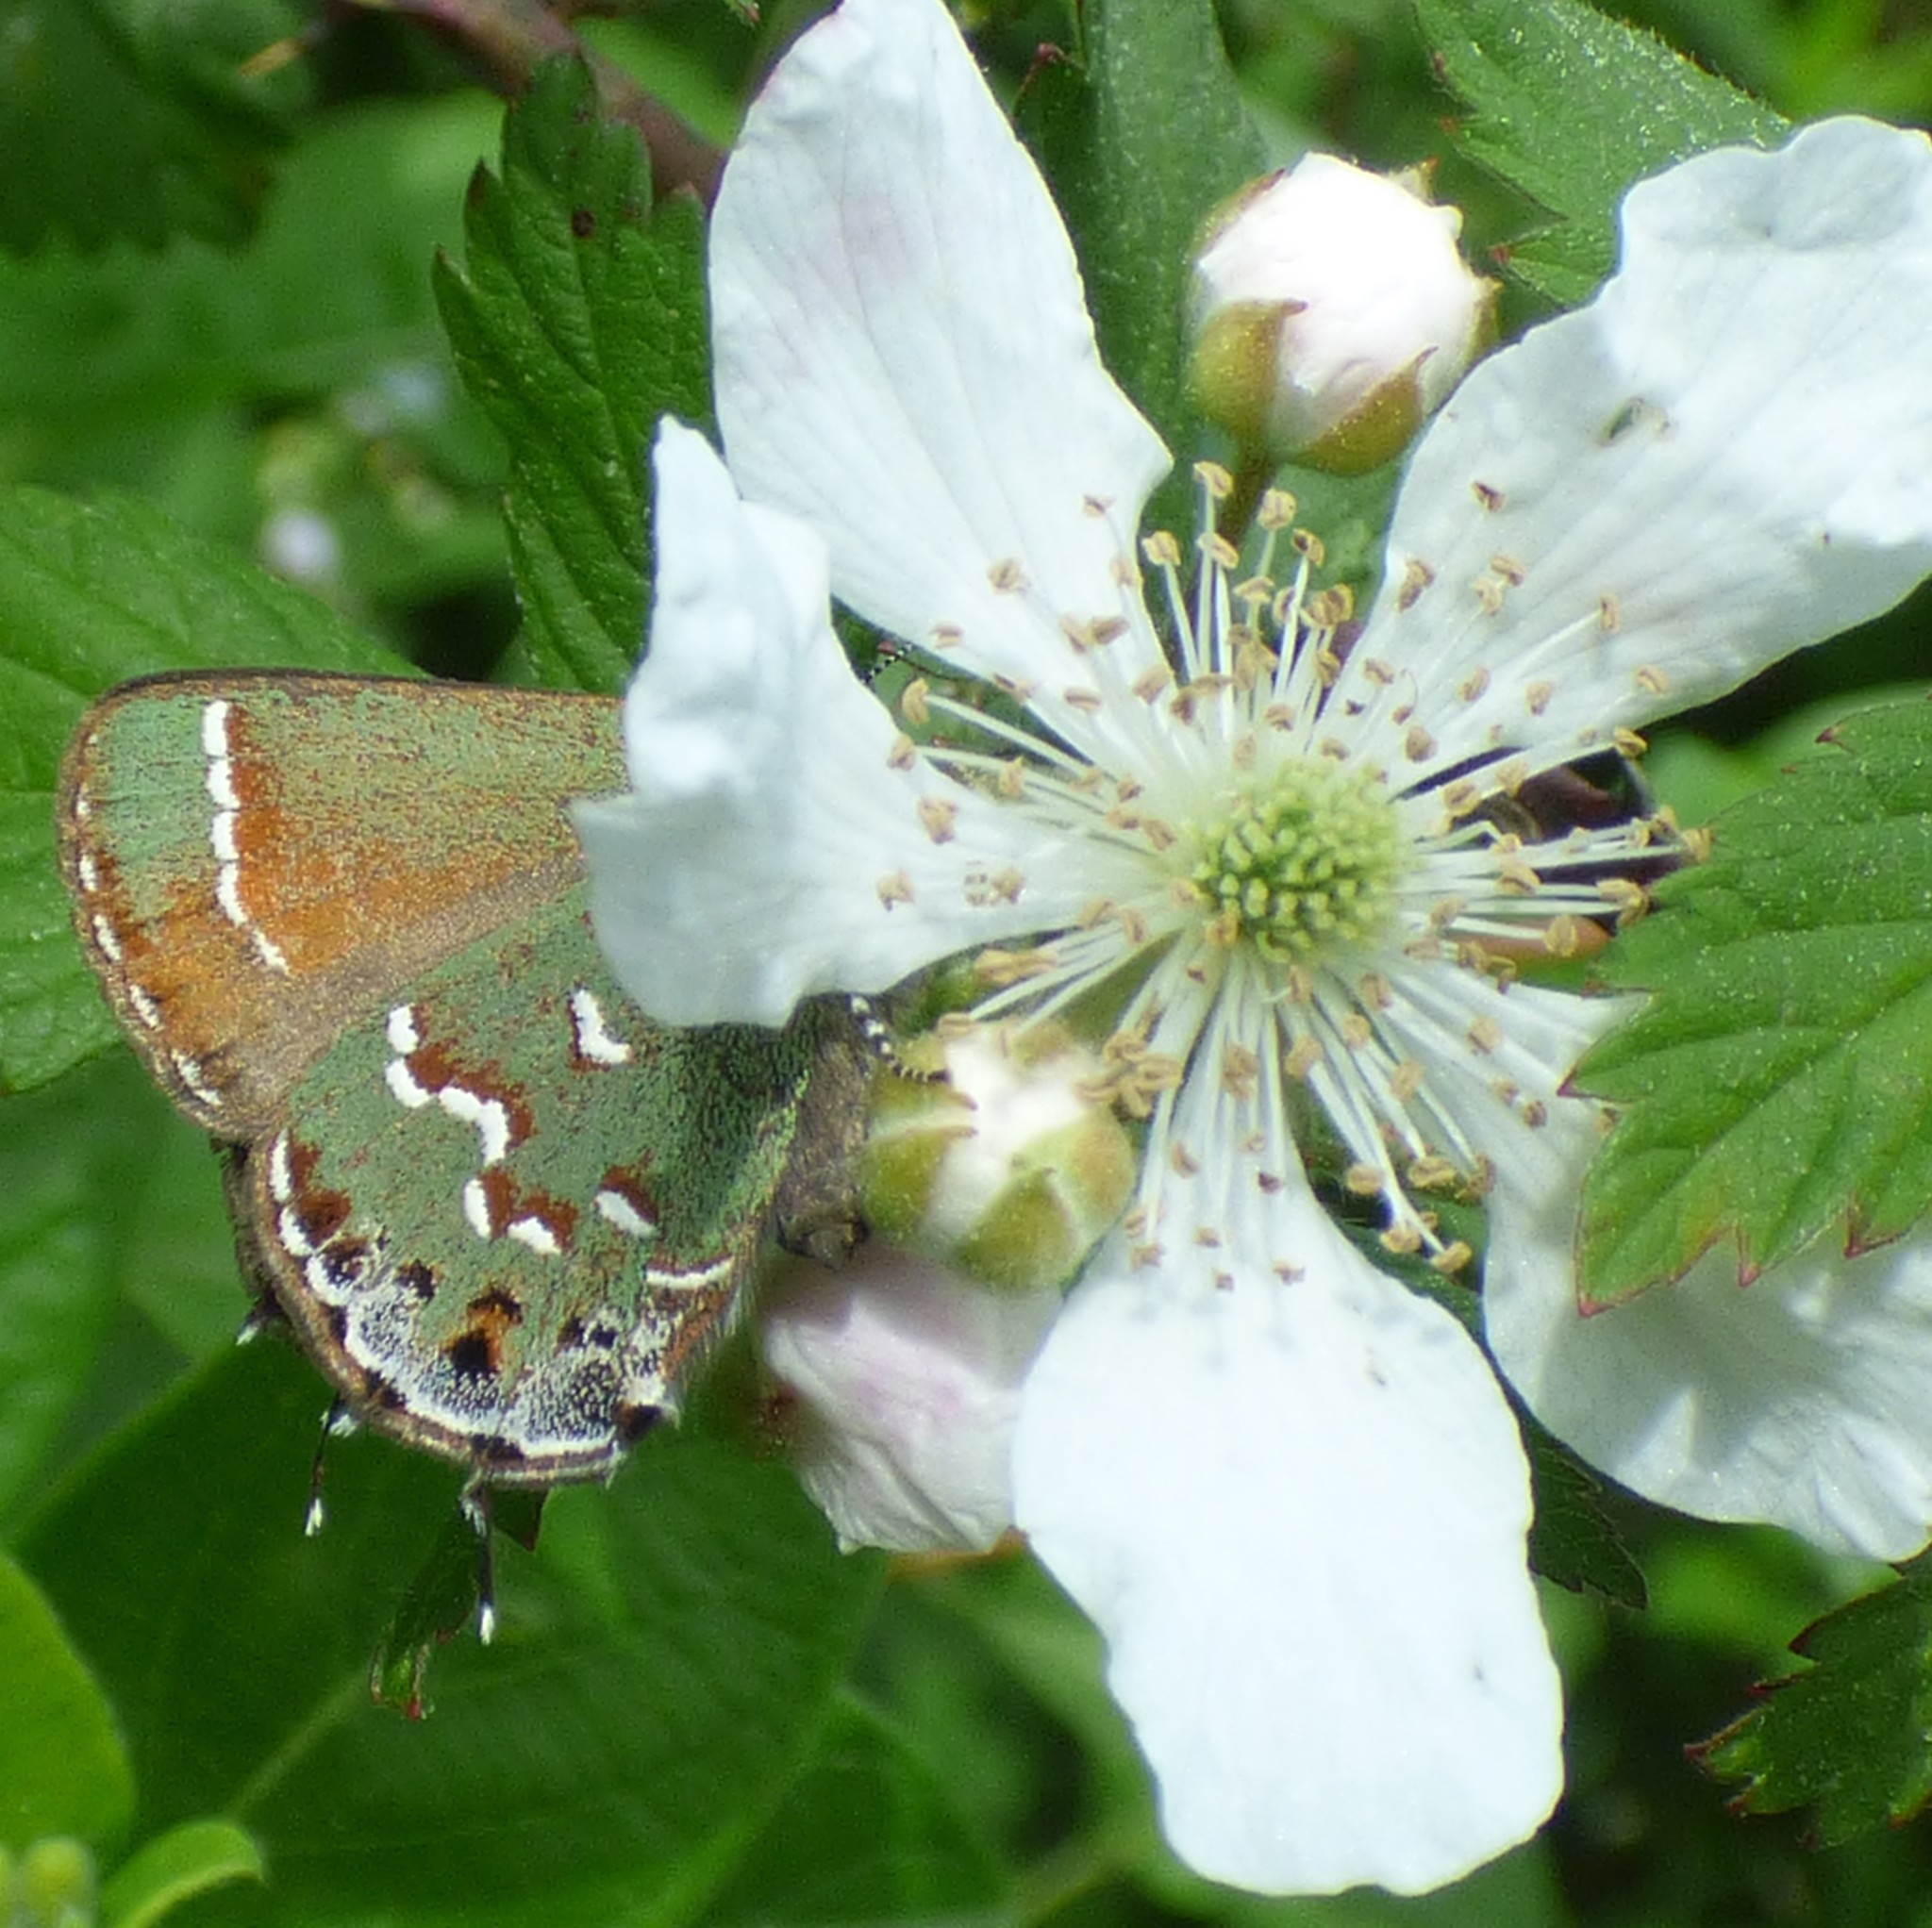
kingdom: Animalia
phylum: Arthropoda
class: Insecta
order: Lepidoptera
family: Lycaenidae
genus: Mitoura
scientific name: Mitoura gryneus
